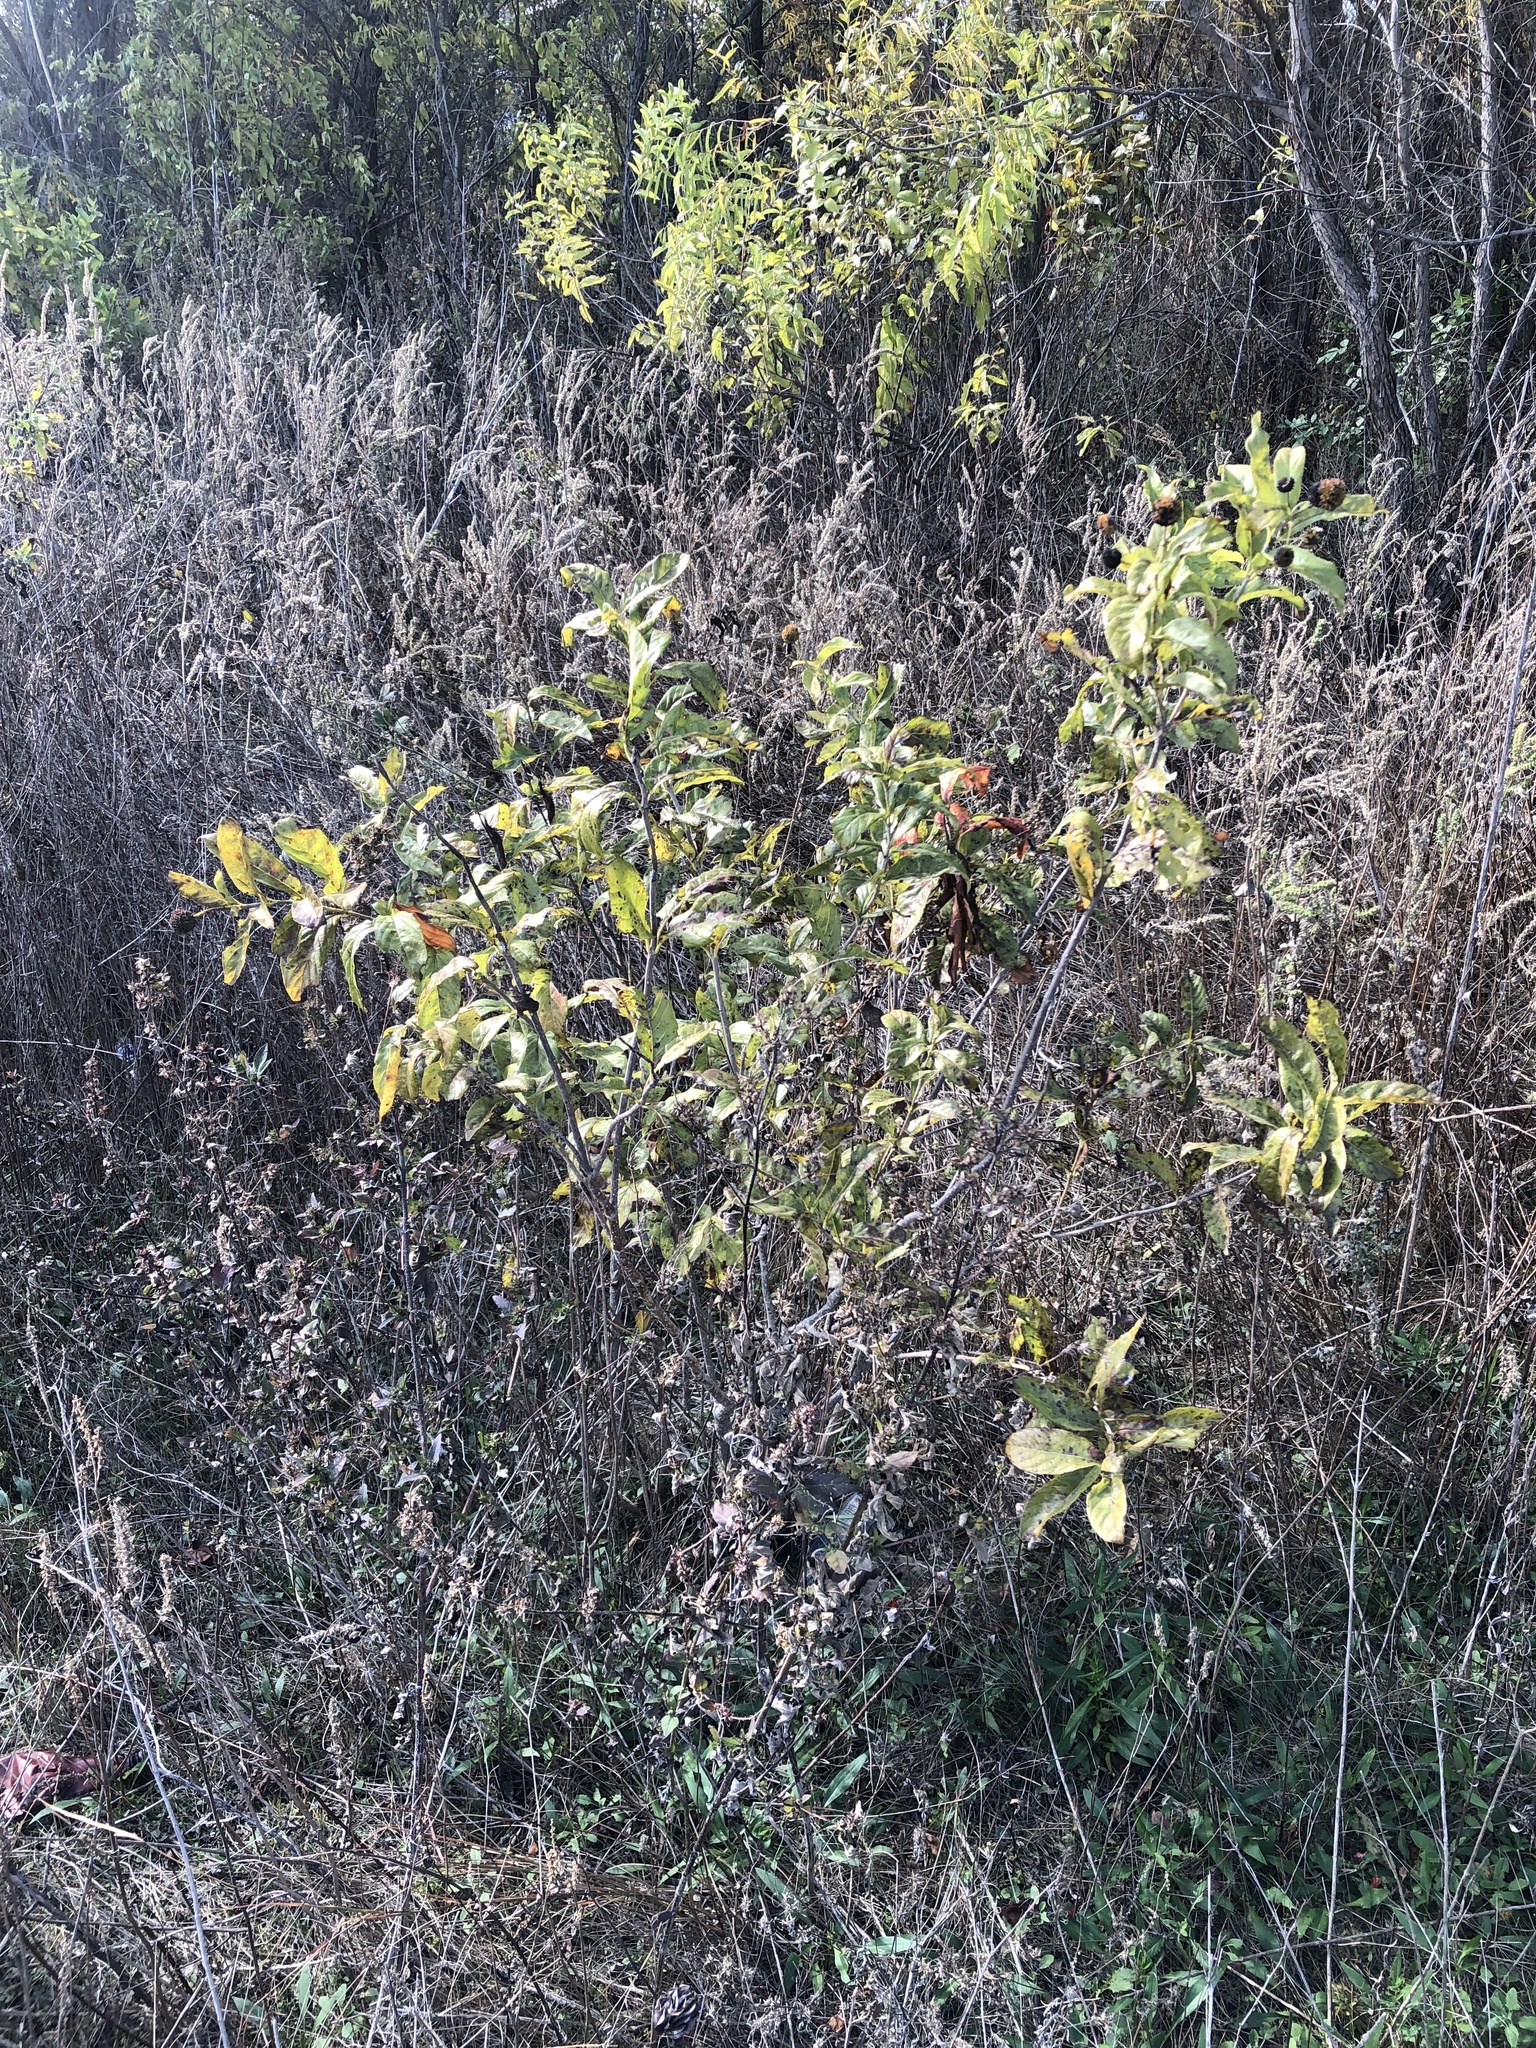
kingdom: Plantae
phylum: Tracheophyta
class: Magnoliopsida
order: Gentianales
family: Rubiaceae
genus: Cephalanthus
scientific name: Cephalanthus occidentalis
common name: Button-willow
